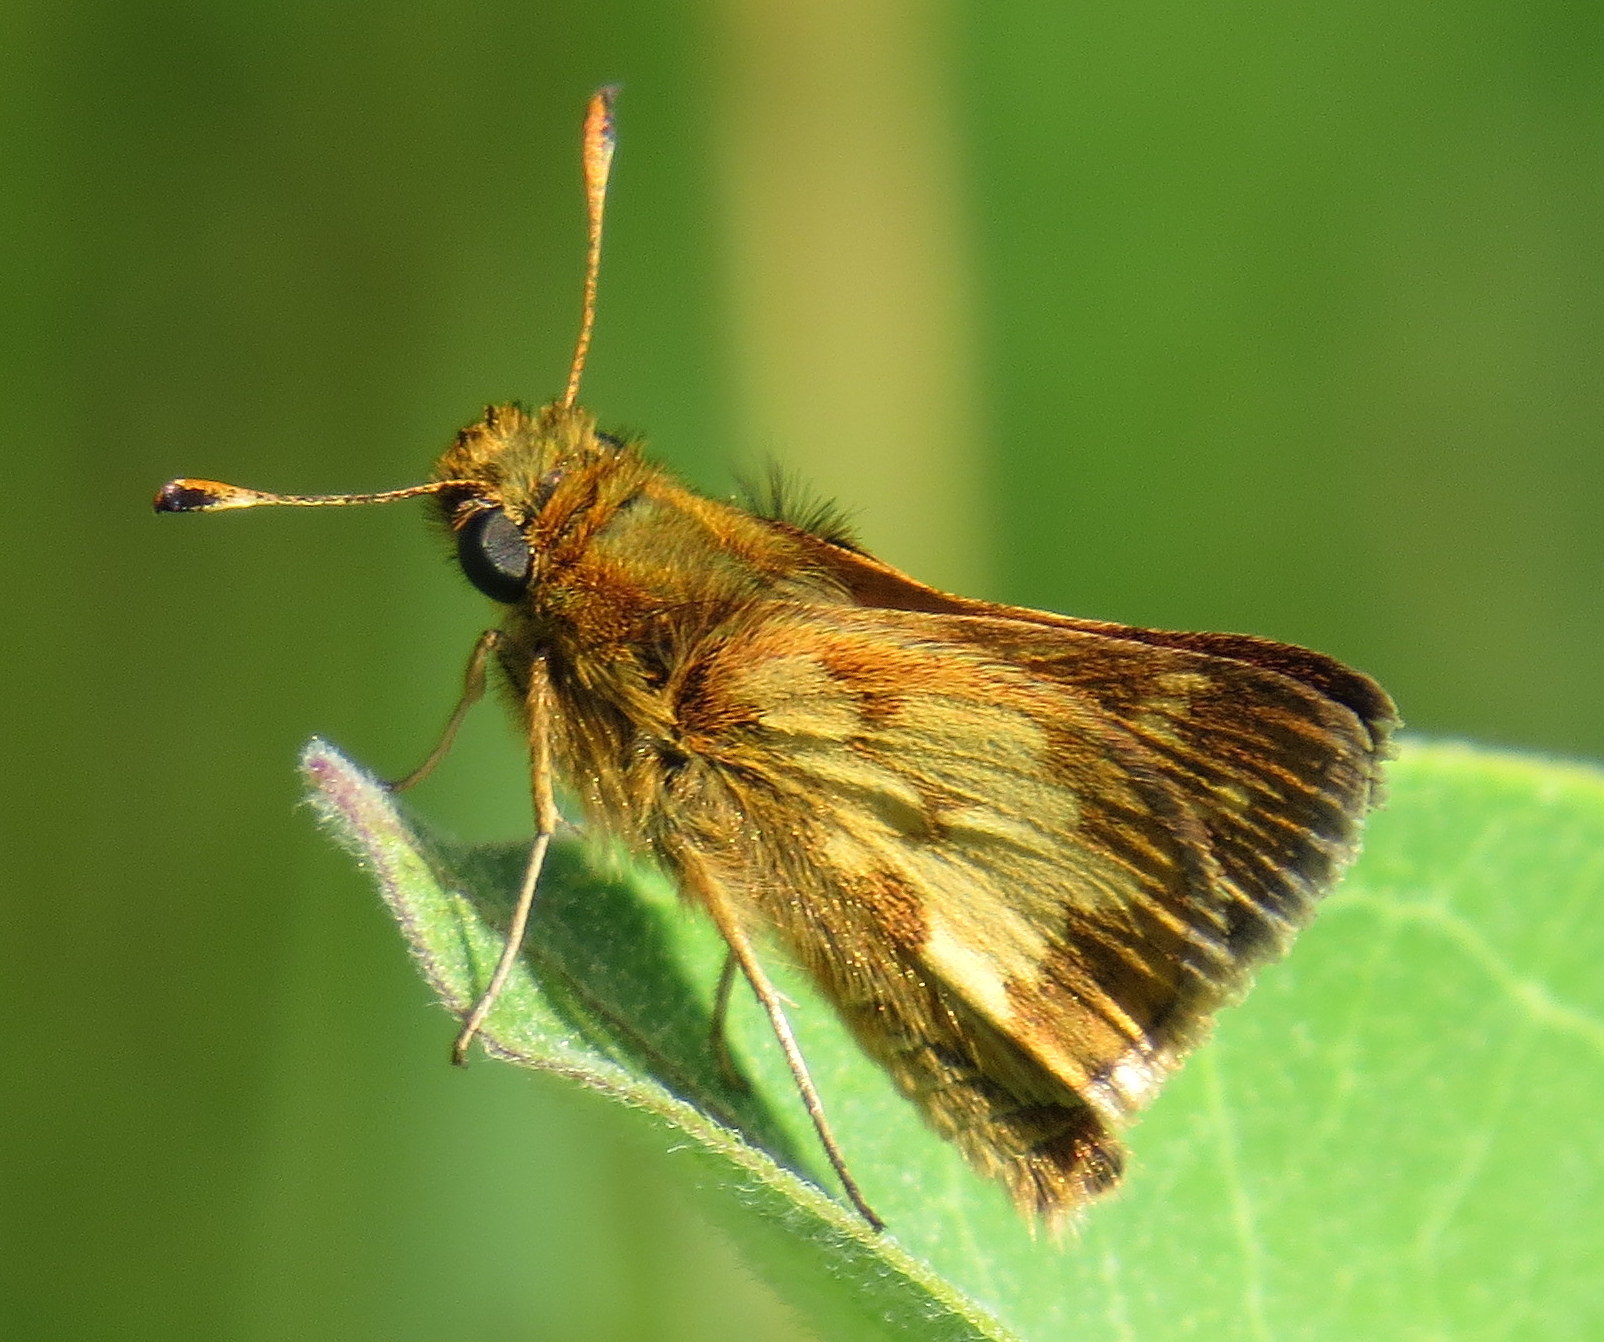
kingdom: Animalia
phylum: Arthropoda
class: Insecta
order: Lepidoptera
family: Hesperiidae
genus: Polites
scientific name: Polites coras
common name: Peck's skipper
